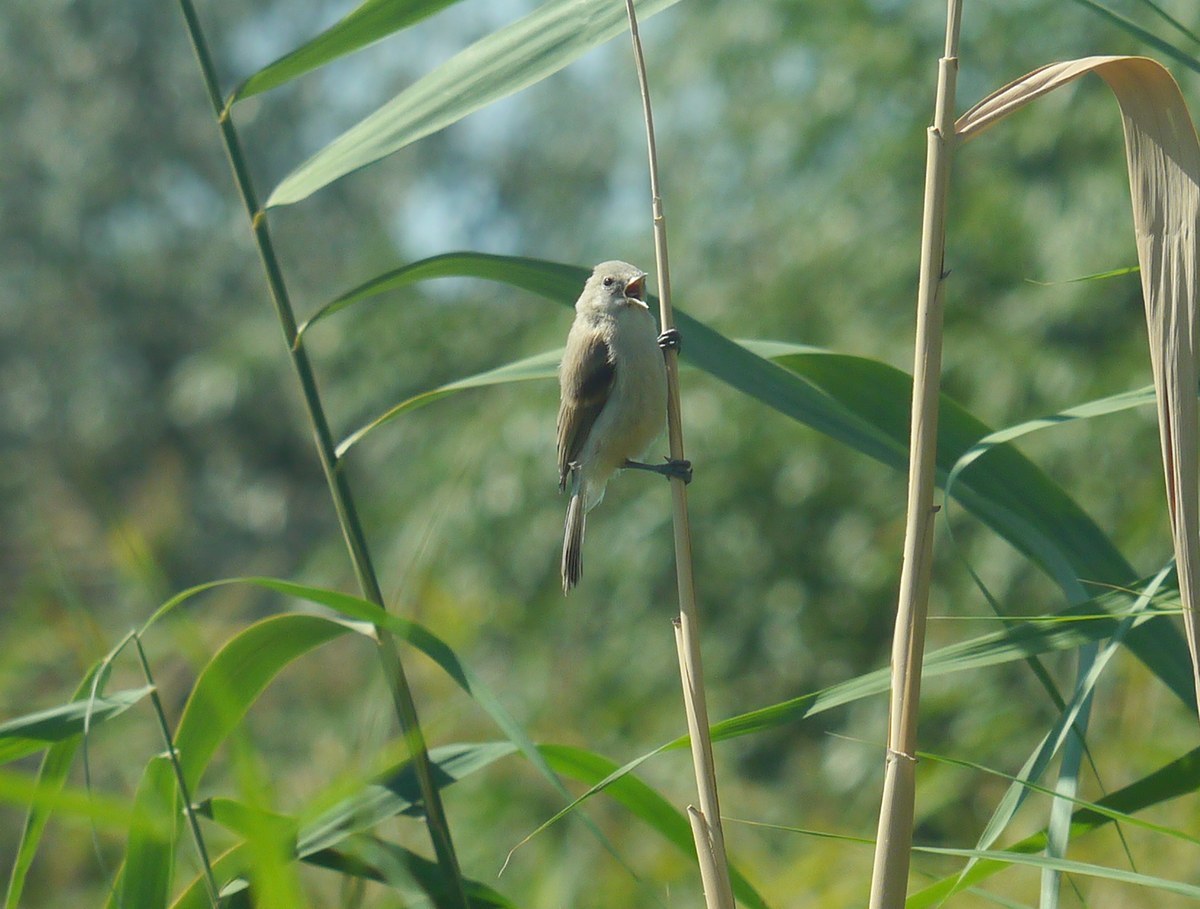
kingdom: Animalia
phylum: Chordata
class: Aves
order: Passeriformes
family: Remizidae
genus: Remiz
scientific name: Remiz pendulinus
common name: Eurasian penduline tit
